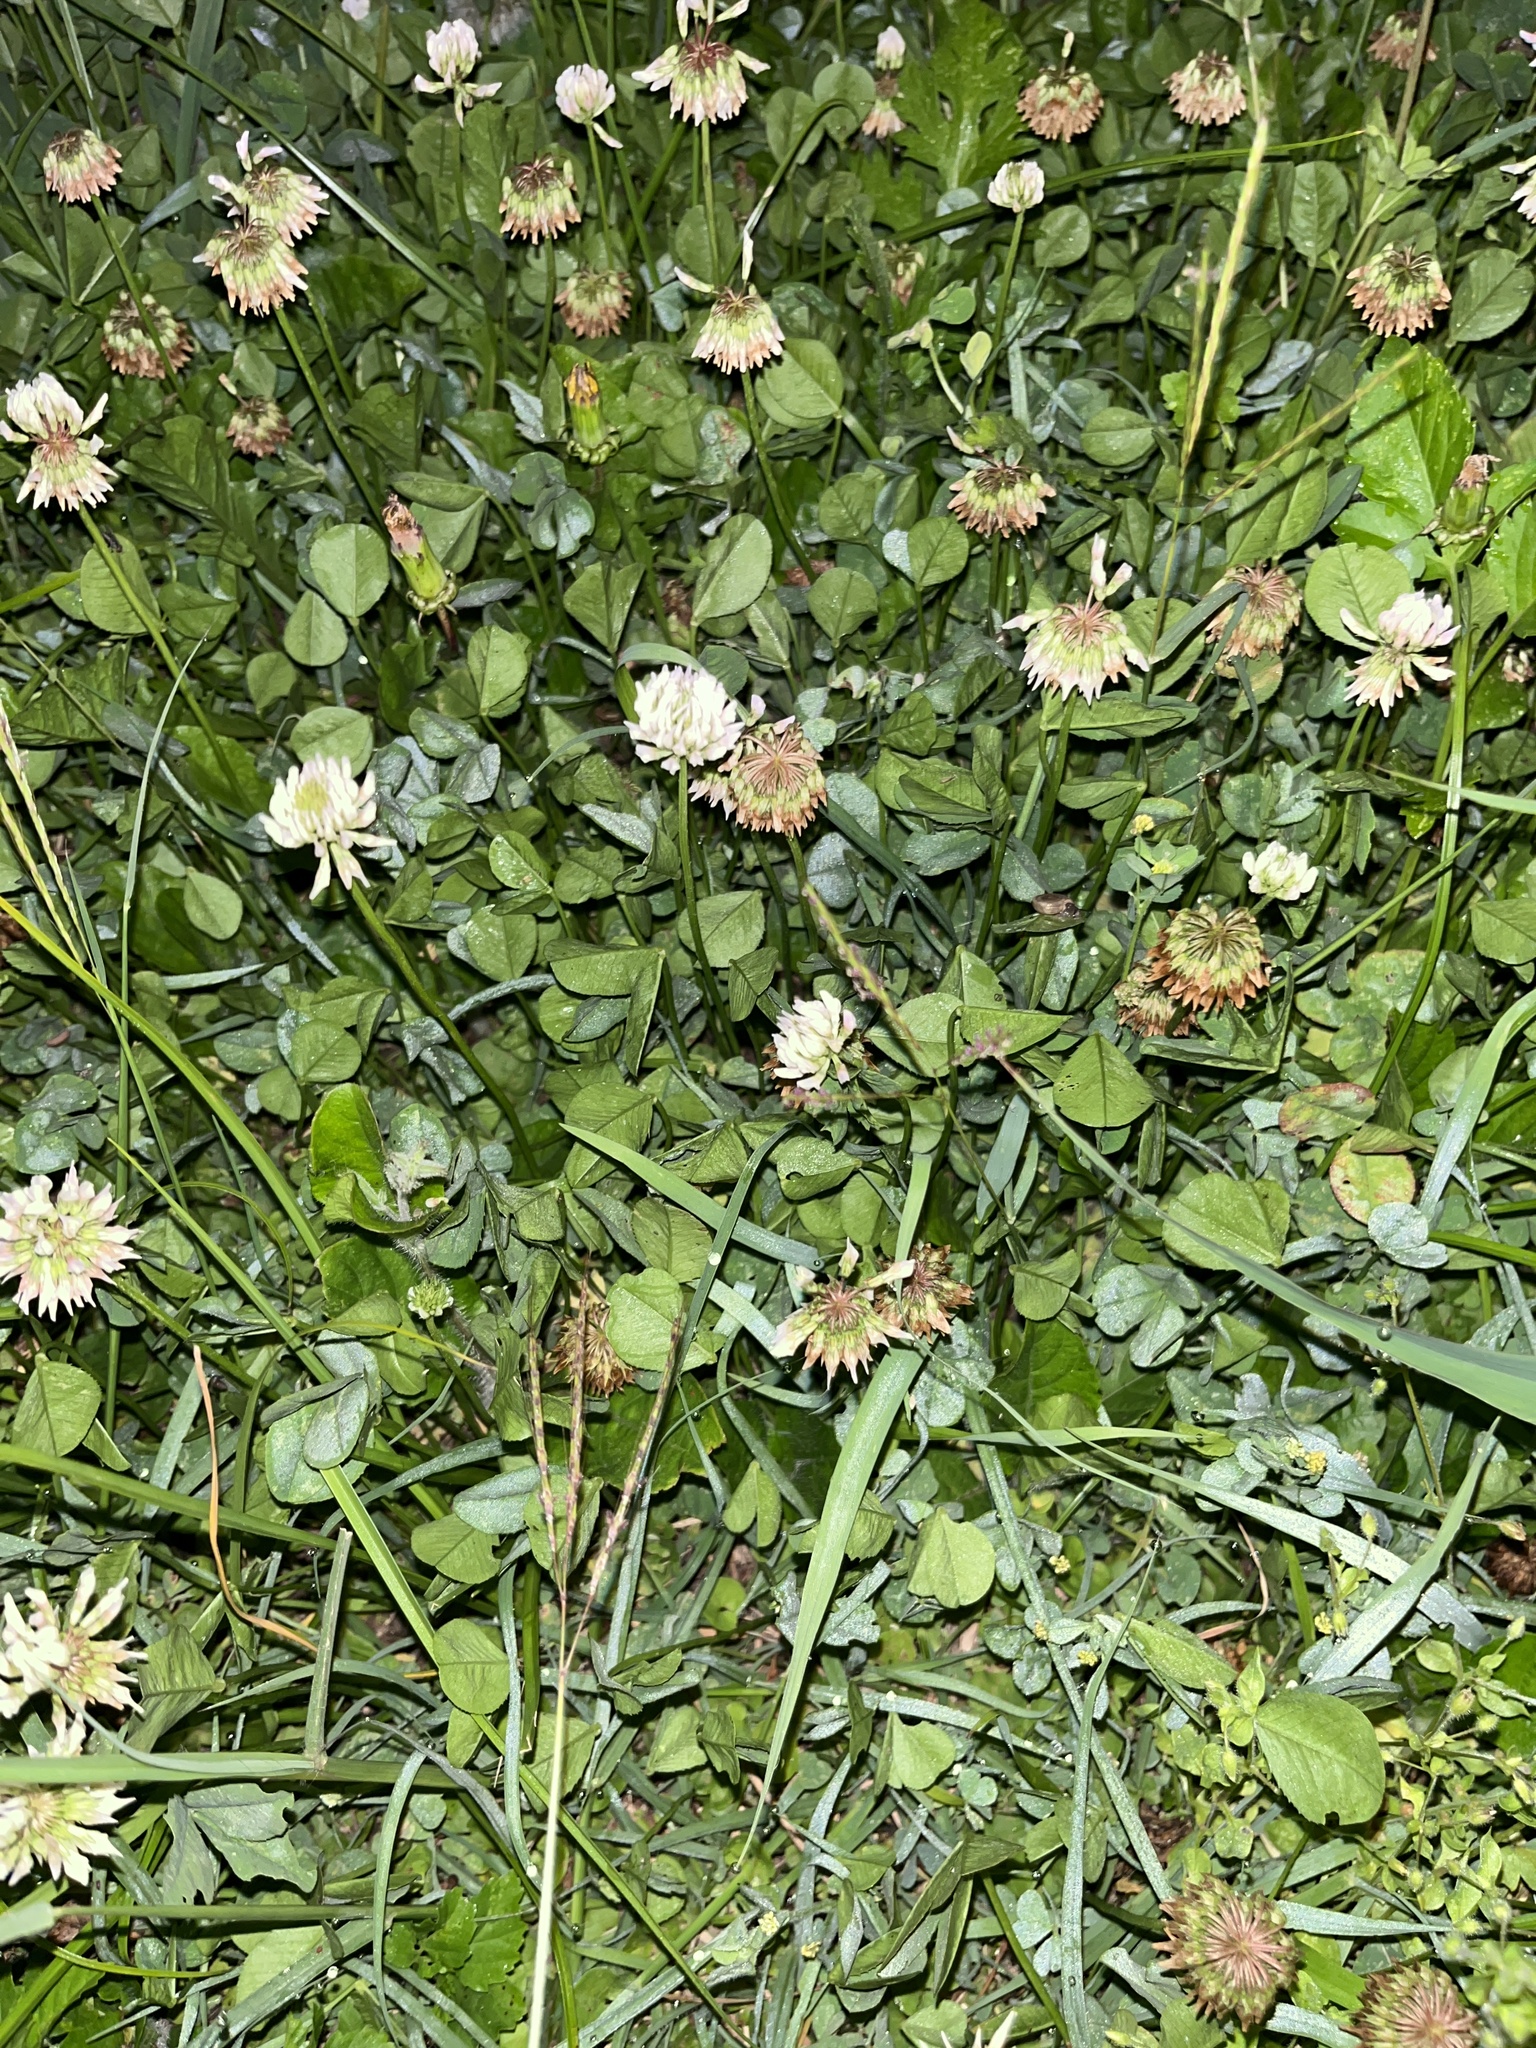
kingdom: Plantae
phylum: Tracheophyta
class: Magnoliopsida
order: Fabales
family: Fabaceae
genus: Trifolium
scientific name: Trifolium repens
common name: White clover
